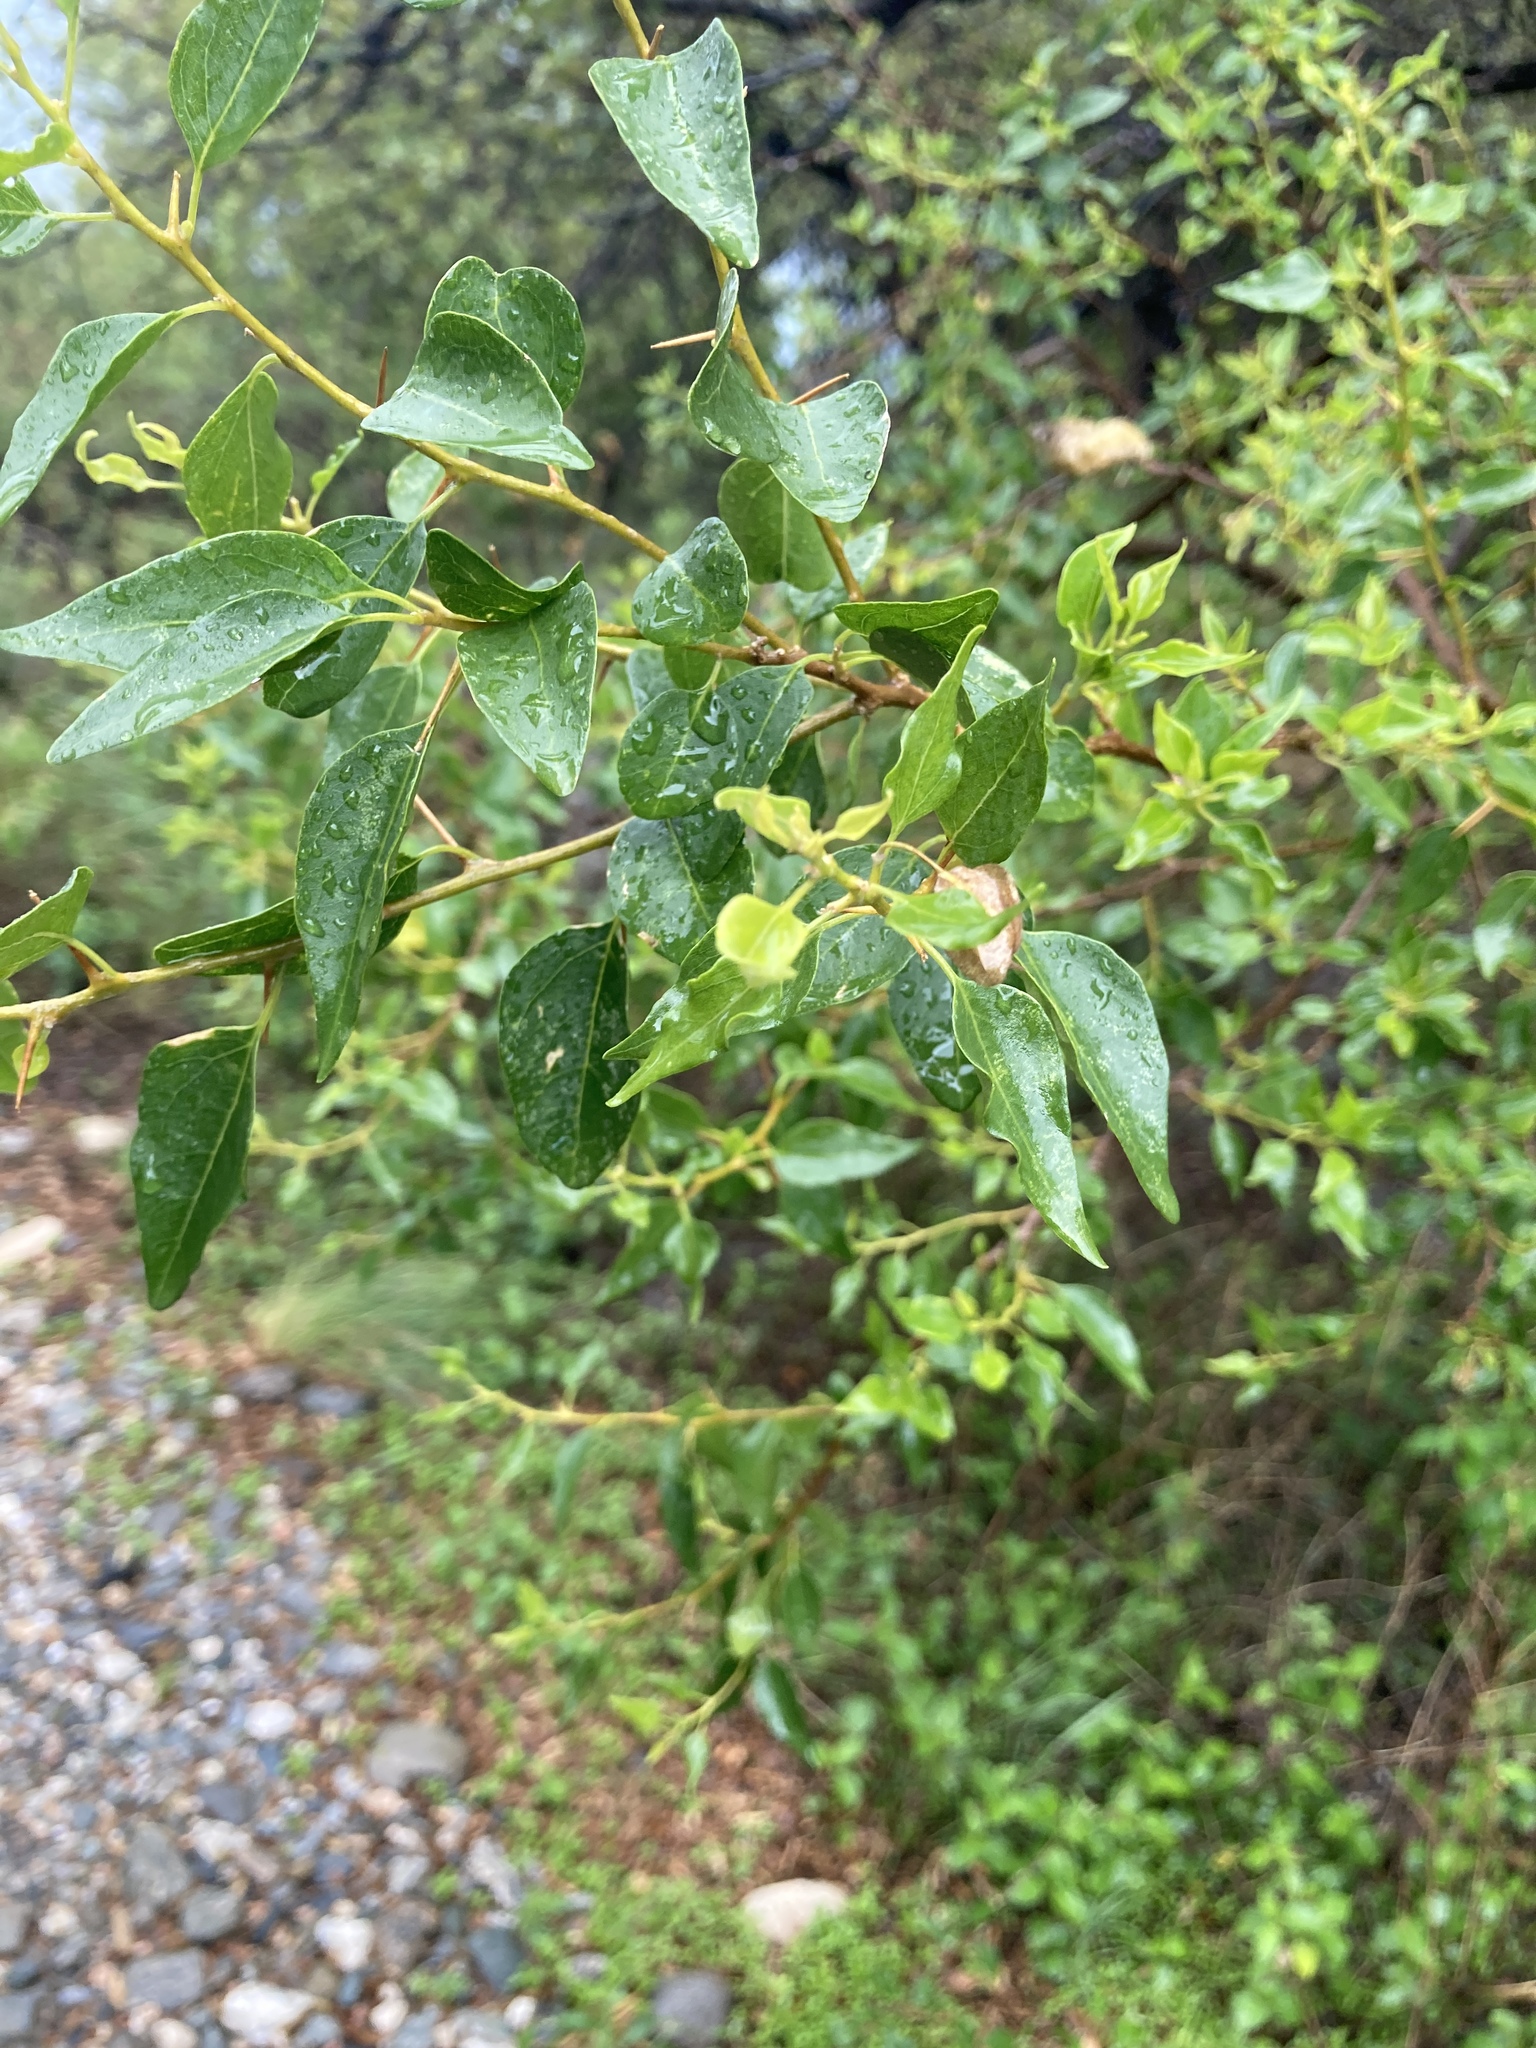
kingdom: Plantae
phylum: Tracheophyta
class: Magnoliopsida
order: Caryophyllales
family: Nyctaginaceae
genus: Bougainvillea
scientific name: Bougainvillea stipitata
